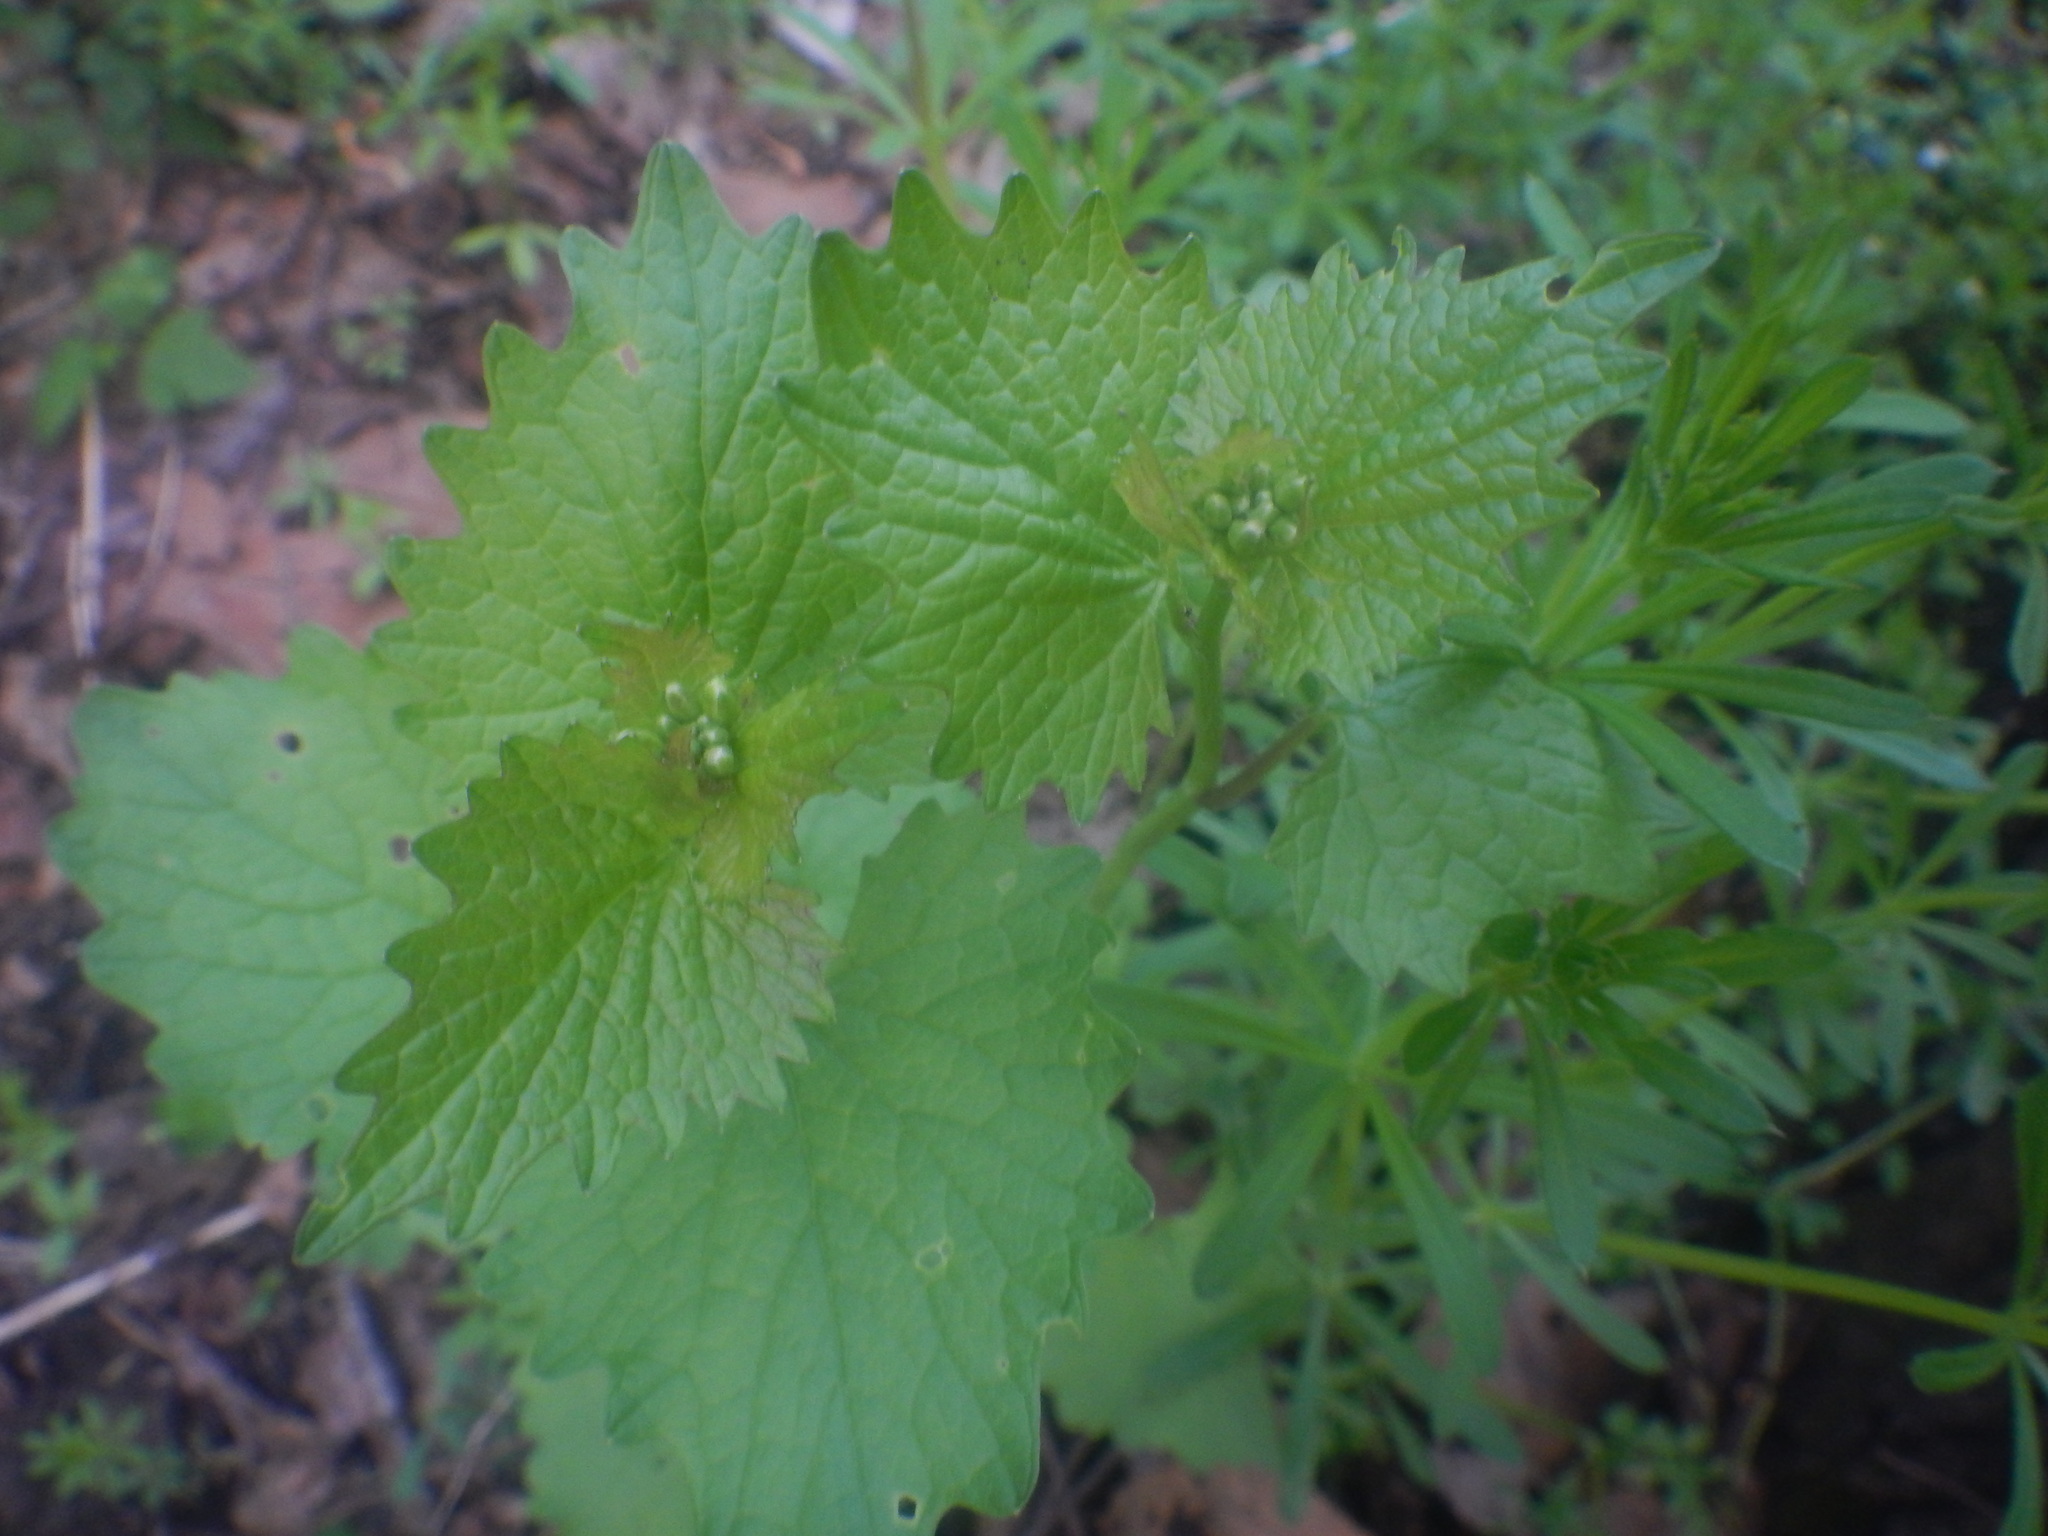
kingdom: Plantae
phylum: Tracheophyta
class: Magnoliopsida
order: Brassicales
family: Brassicaceae
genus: Alliaria
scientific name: Alliaria petiolata
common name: Garlic mustard
